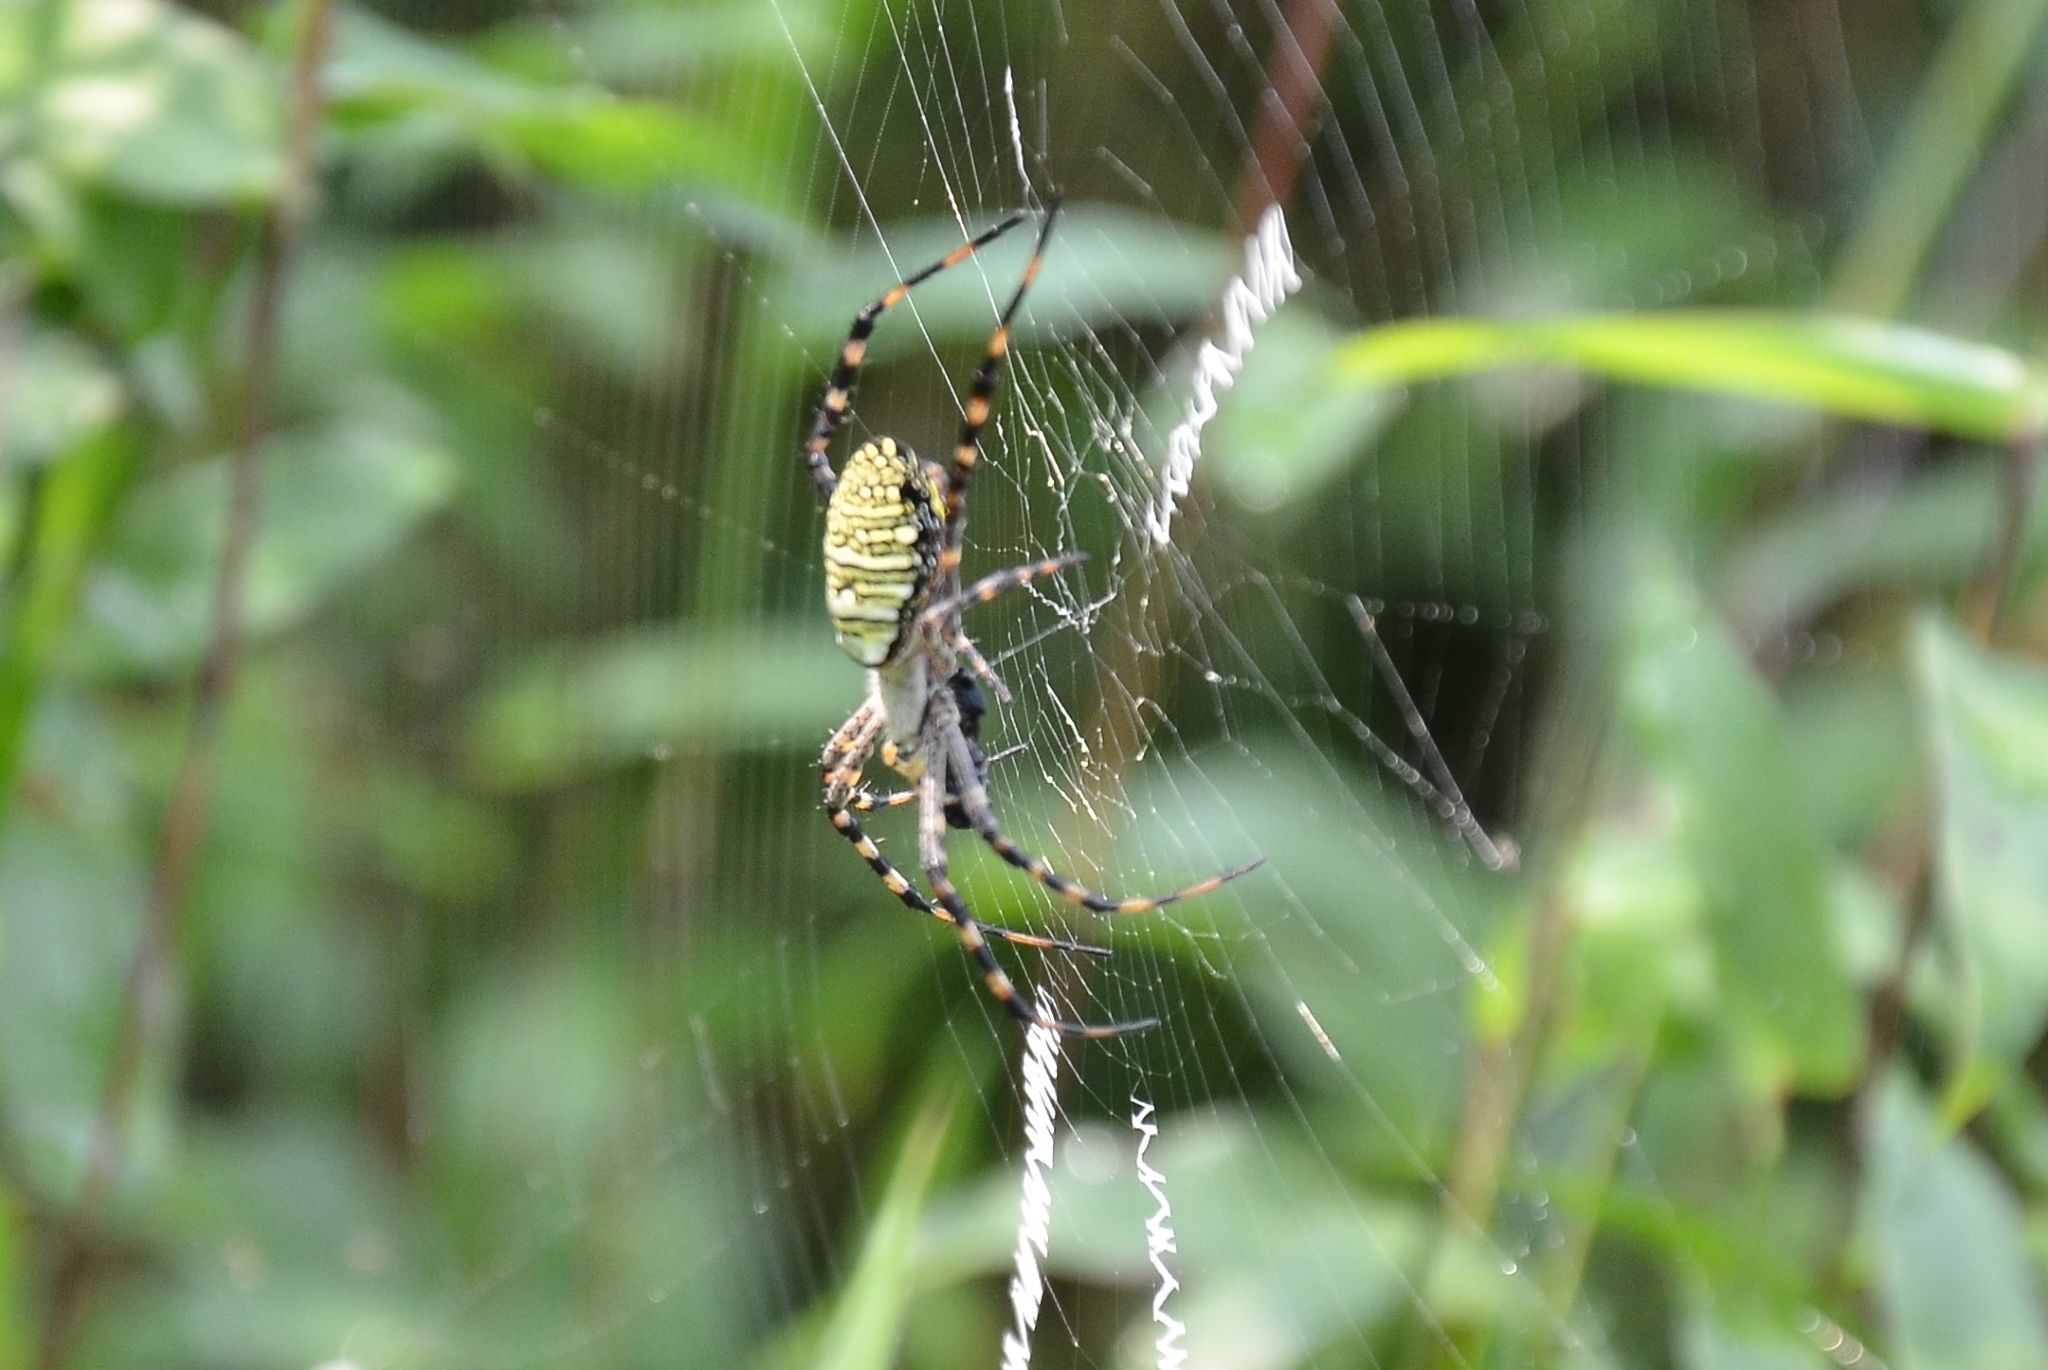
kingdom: Animalia
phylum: Arthropoda
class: Arachnida
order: Araneae
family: Araneidae
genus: Argiope
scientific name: Argiope aemula
